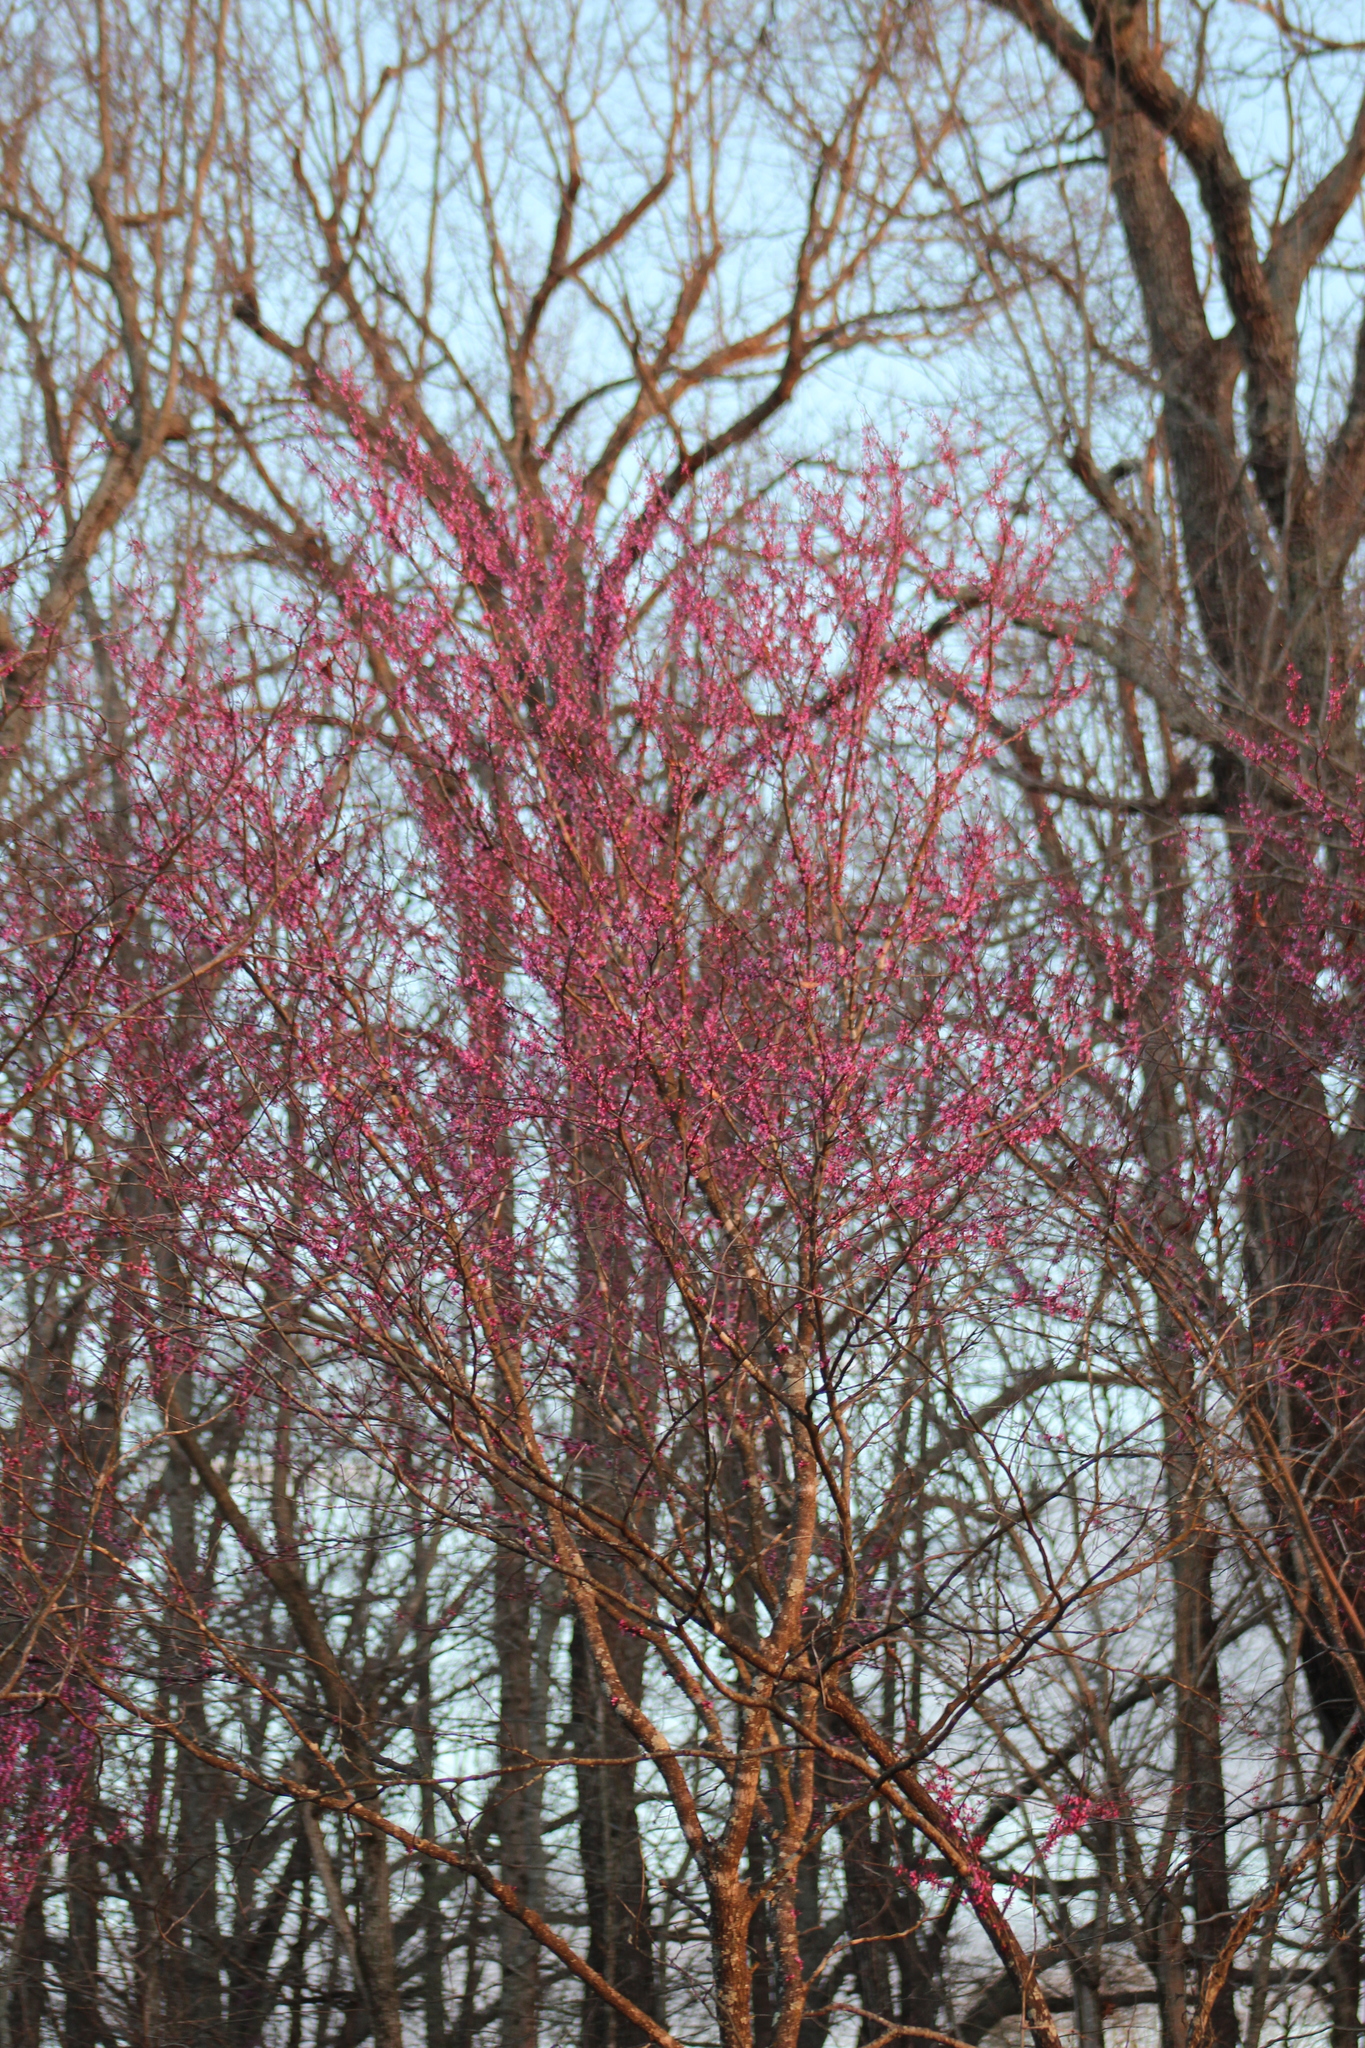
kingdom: Plantae
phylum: Tracheophyta
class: Magnoliopsida
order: Fabales
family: Fabaceae
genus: Cercis
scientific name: Cercis canadensis
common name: Eastern redbud
